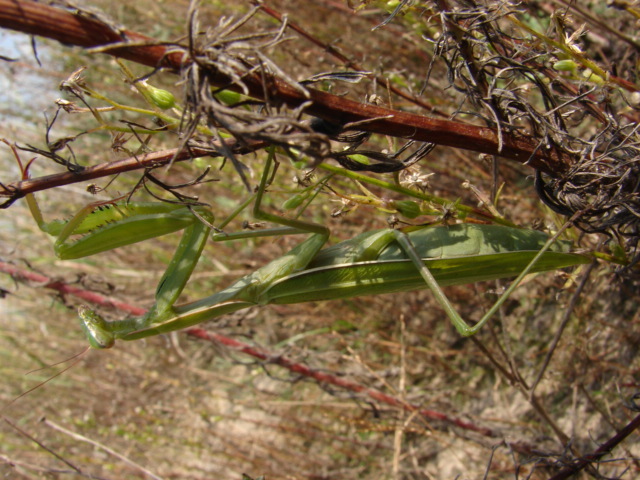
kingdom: Animalia
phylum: Arthropoda
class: Insecta
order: Mantodea
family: Mantidae
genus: Mantis
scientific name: Mantis religiosa
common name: Praying mantis
